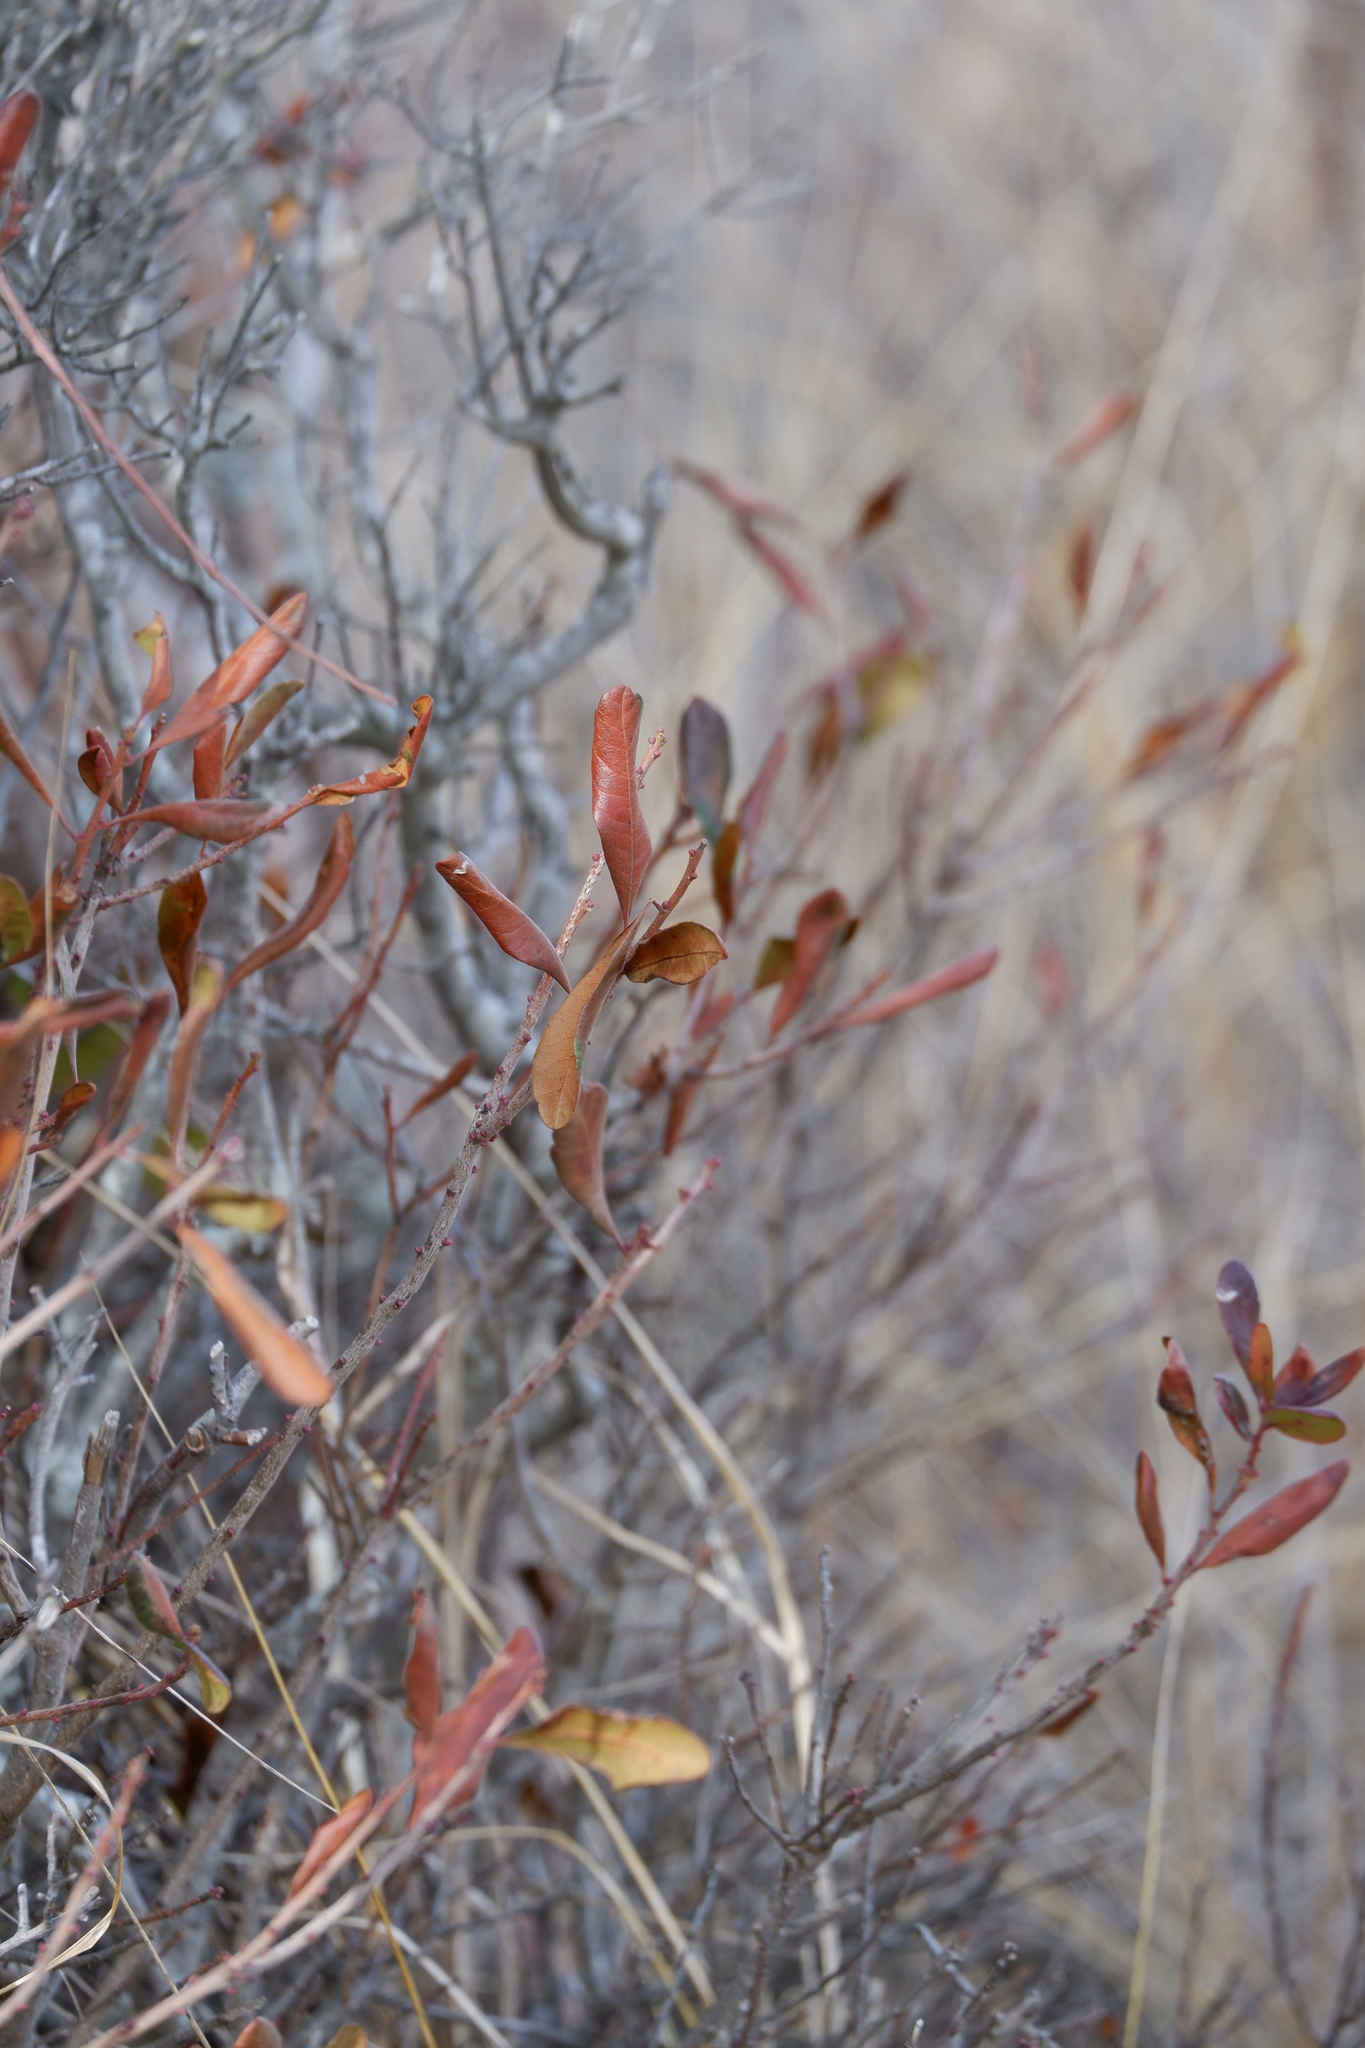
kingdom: Plantae
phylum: Tracheophyta
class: Magnoliopsida
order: Fagales
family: Myricaceae
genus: Morella
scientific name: Morella pensylvanica
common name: Northern bayberry
